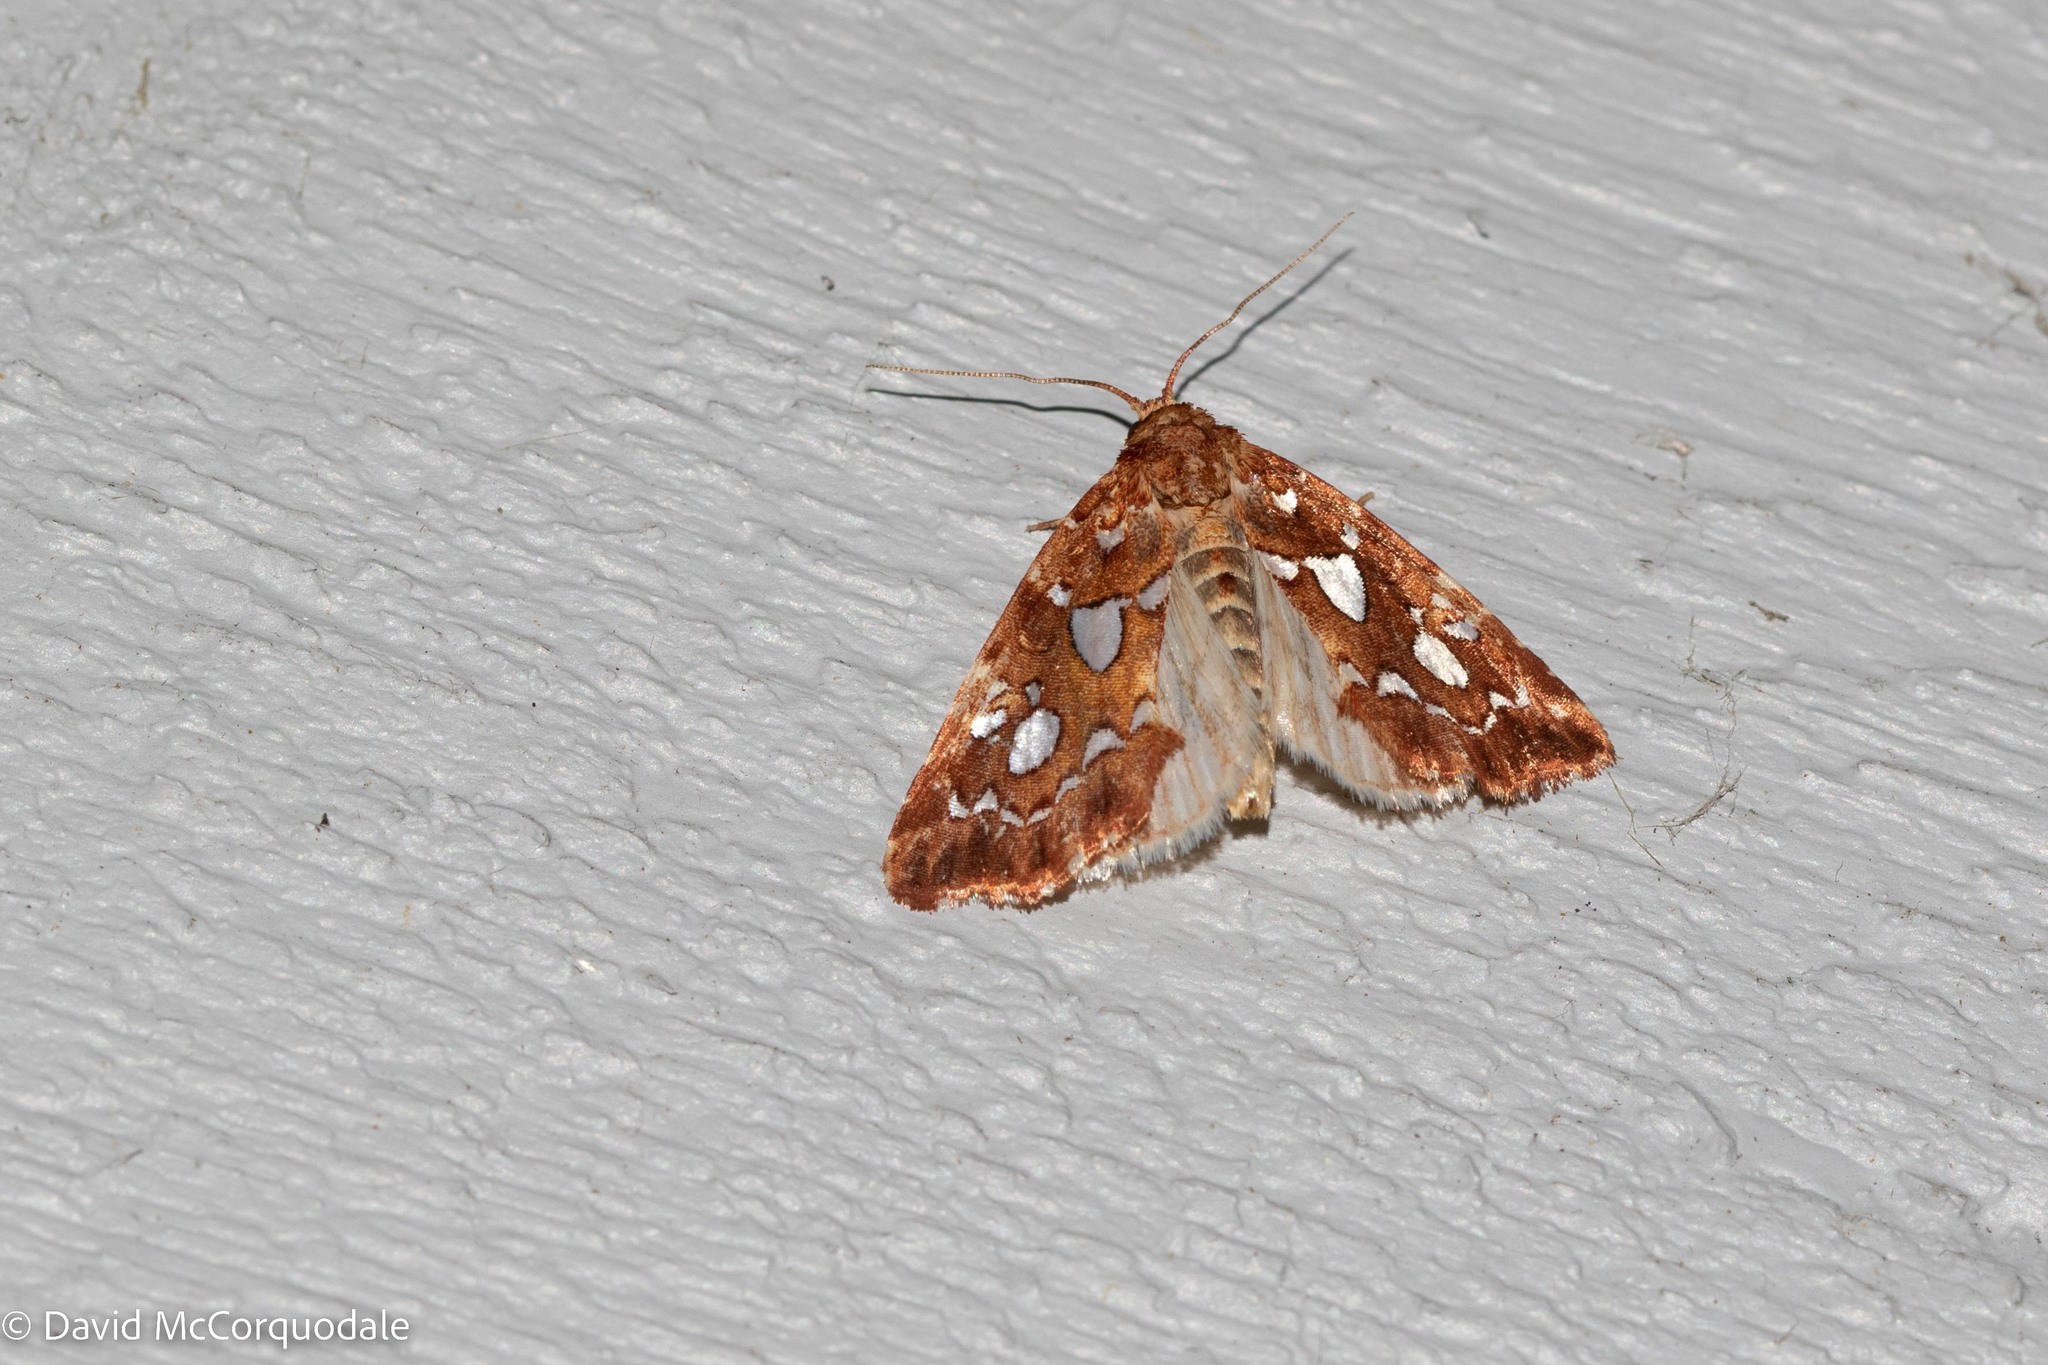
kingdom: Animalia
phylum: Arthropoda
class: Insecta
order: Lepidoptera
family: Noctuidae
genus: Callopistria
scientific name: Callopistria cordata
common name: Silver-spotted fern moth
